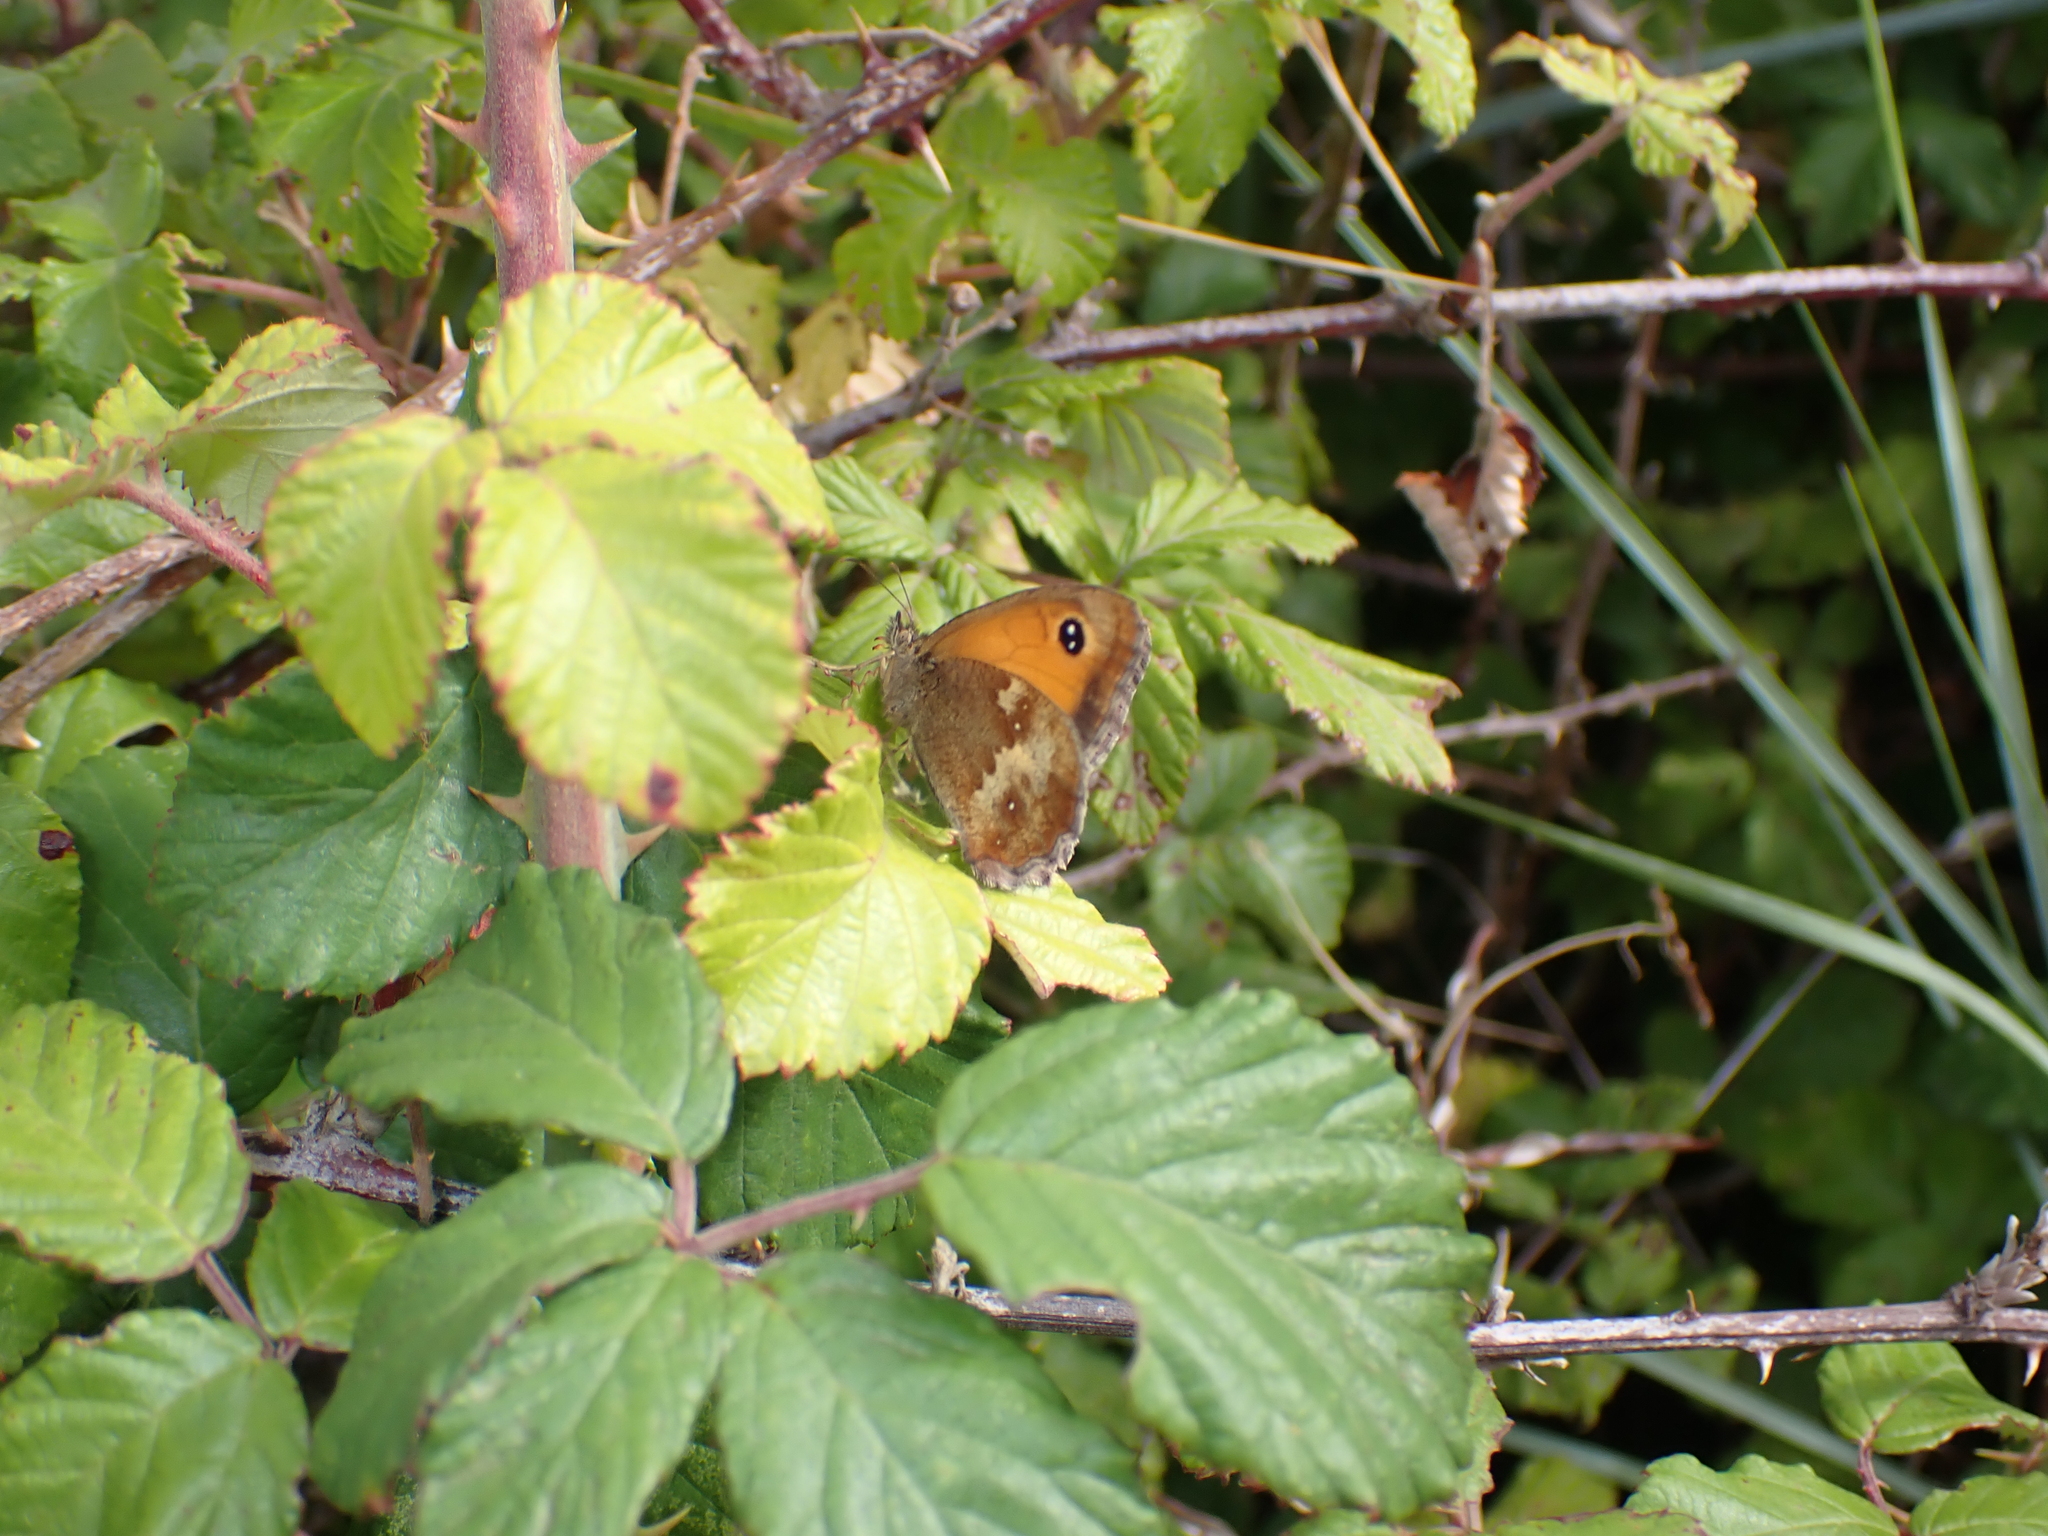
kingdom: Animalia
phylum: Arthropoda
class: Insecta
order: Lepidoptera
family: Nymphalidae
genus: Pyronia
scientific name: Pyronia tithonus
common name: Gatekeeper
